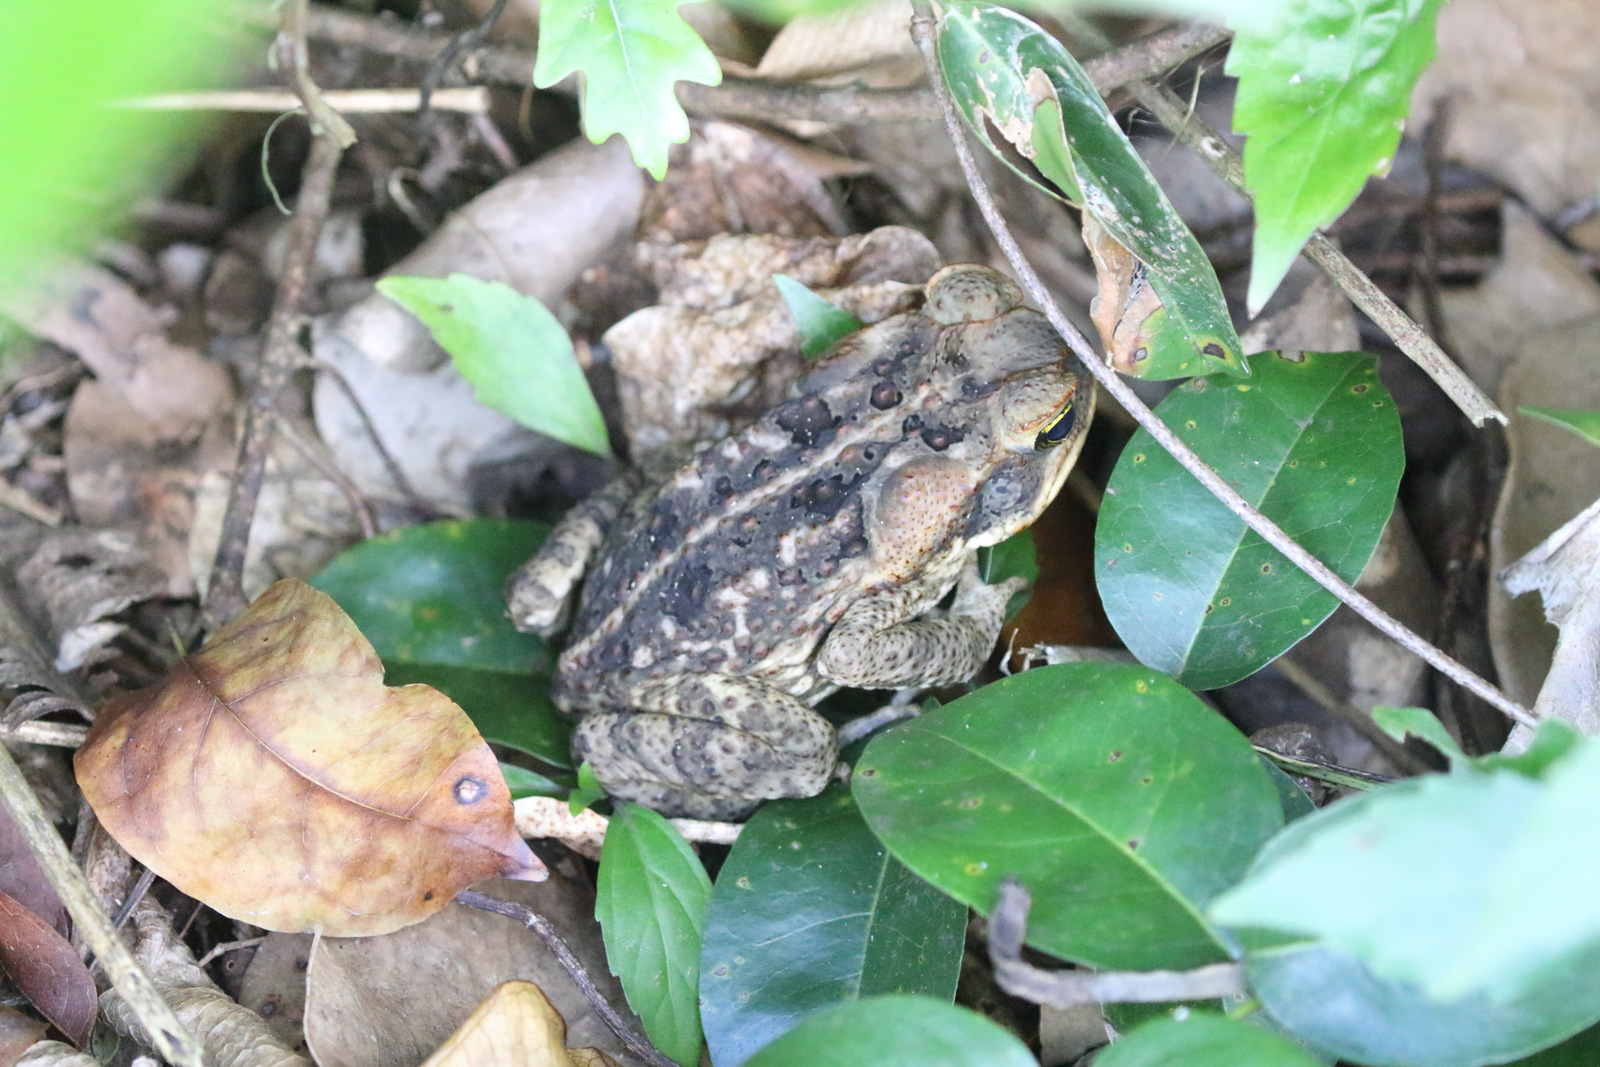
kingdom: Animalia
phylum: Chordata
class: Amphibia
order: Anura
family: Bufonidae
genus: Rhinella
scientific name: Rhinella marina
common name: Cane toad
